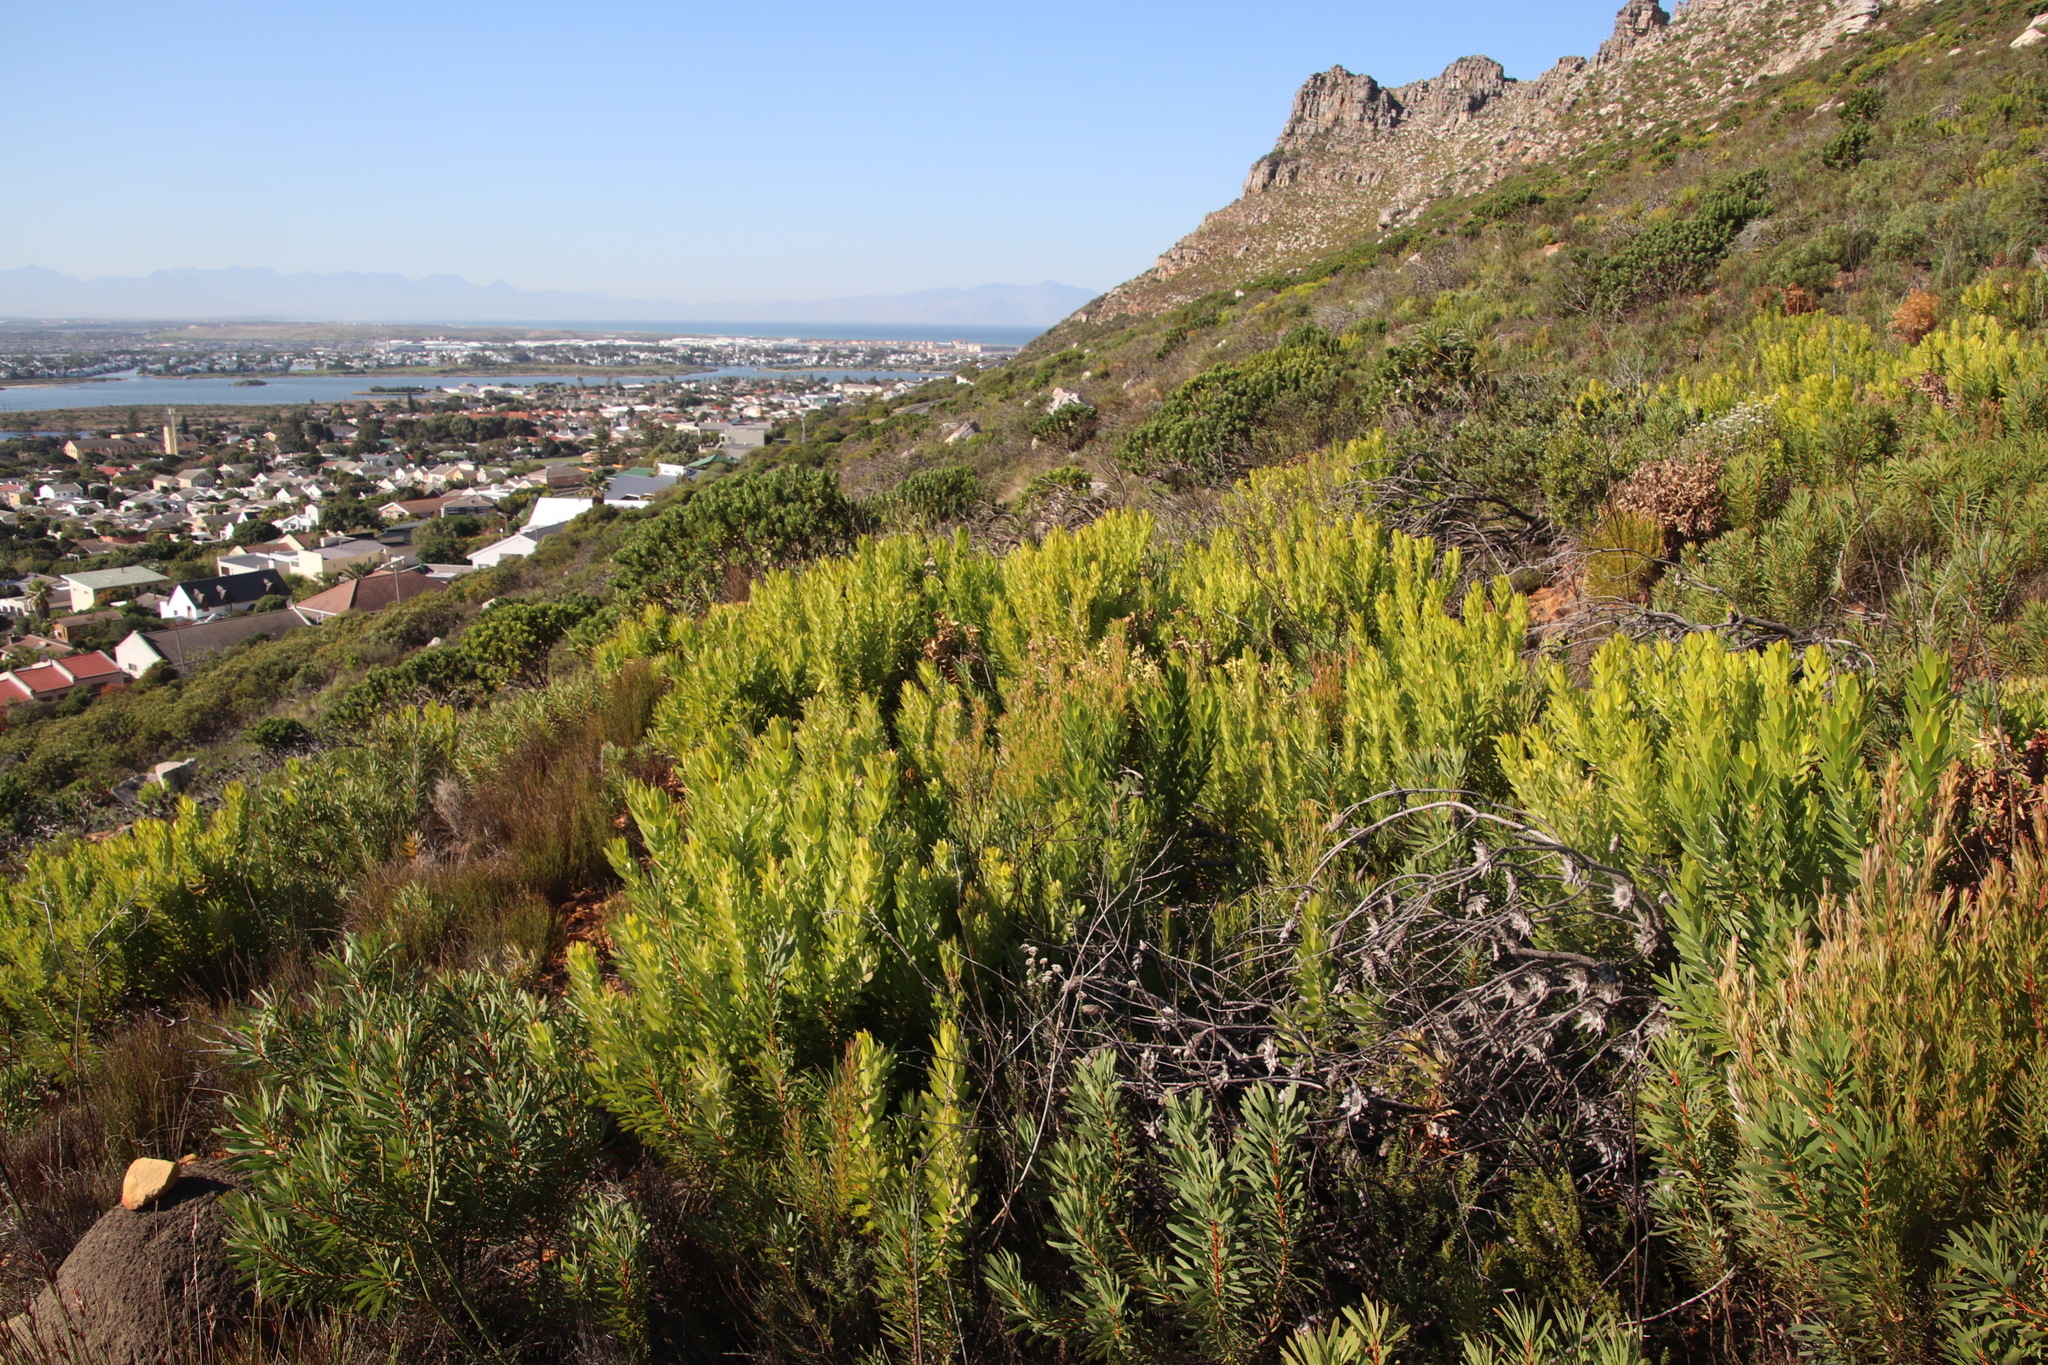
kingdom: Plantae
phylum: Tracheophyta
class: Magnoliopsida
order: Proteales
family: Proteaceae
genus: Leucadendron
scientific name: Leucadendron laureolum
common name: Golden sunshinebush
